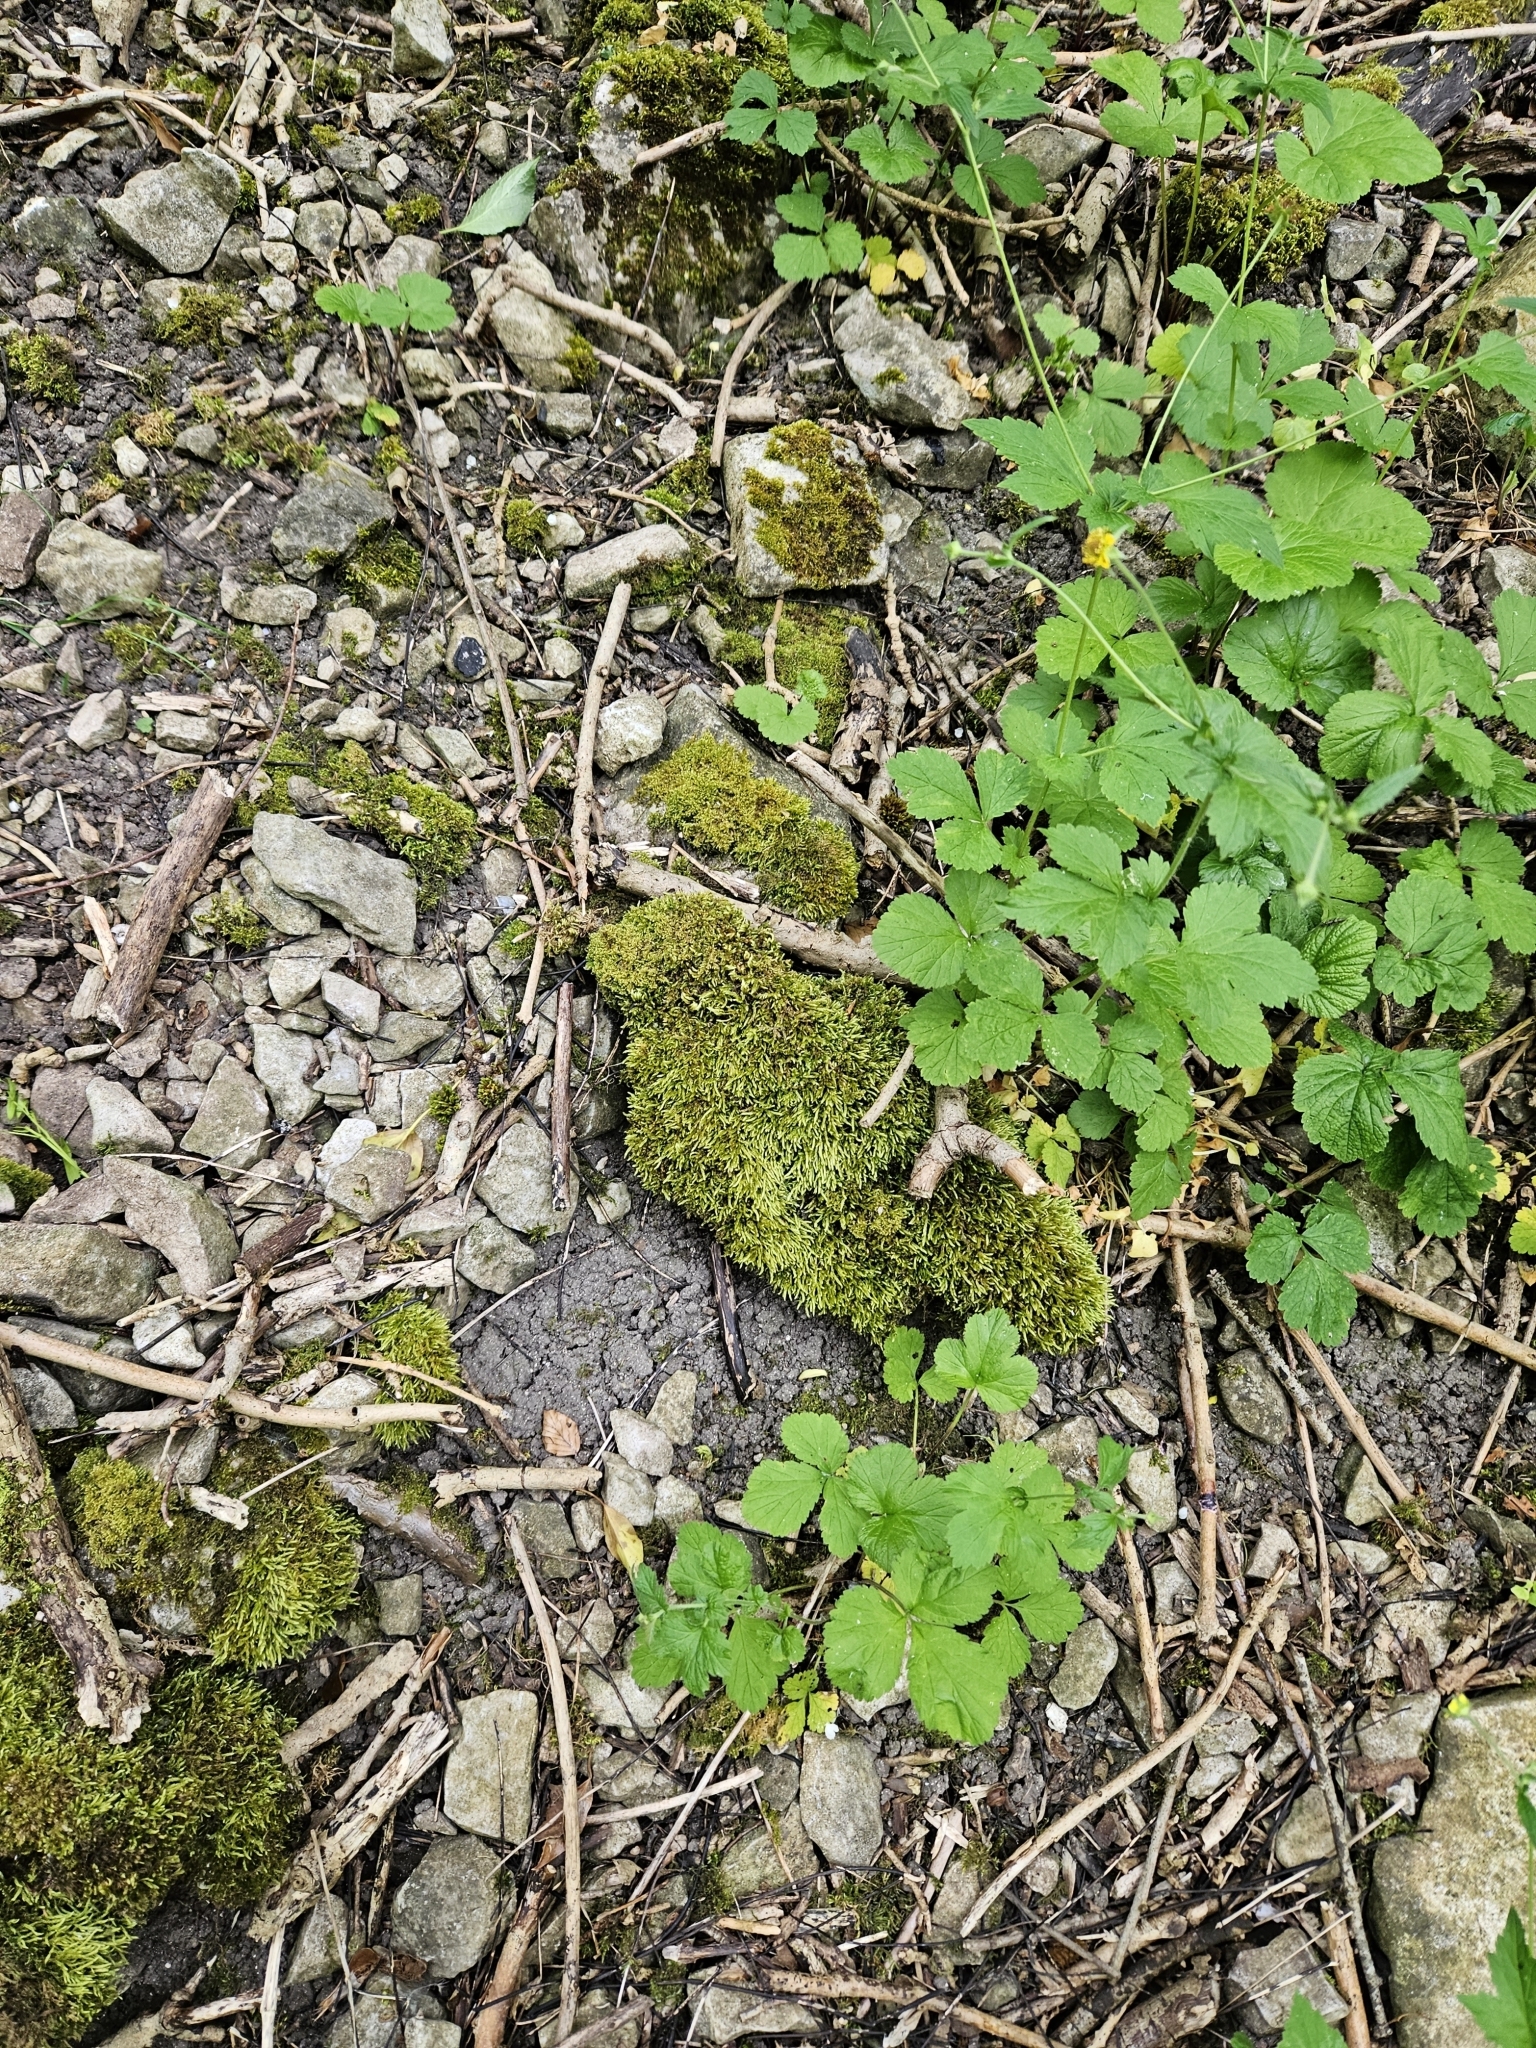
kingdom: Plantae
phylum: Bryophyta
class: Bryopsida
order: Hypnales
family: Brachytheciaceae
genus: Cirriphyllum
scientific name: Cirriphyllum crassinervium
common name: Beech feather-moss
